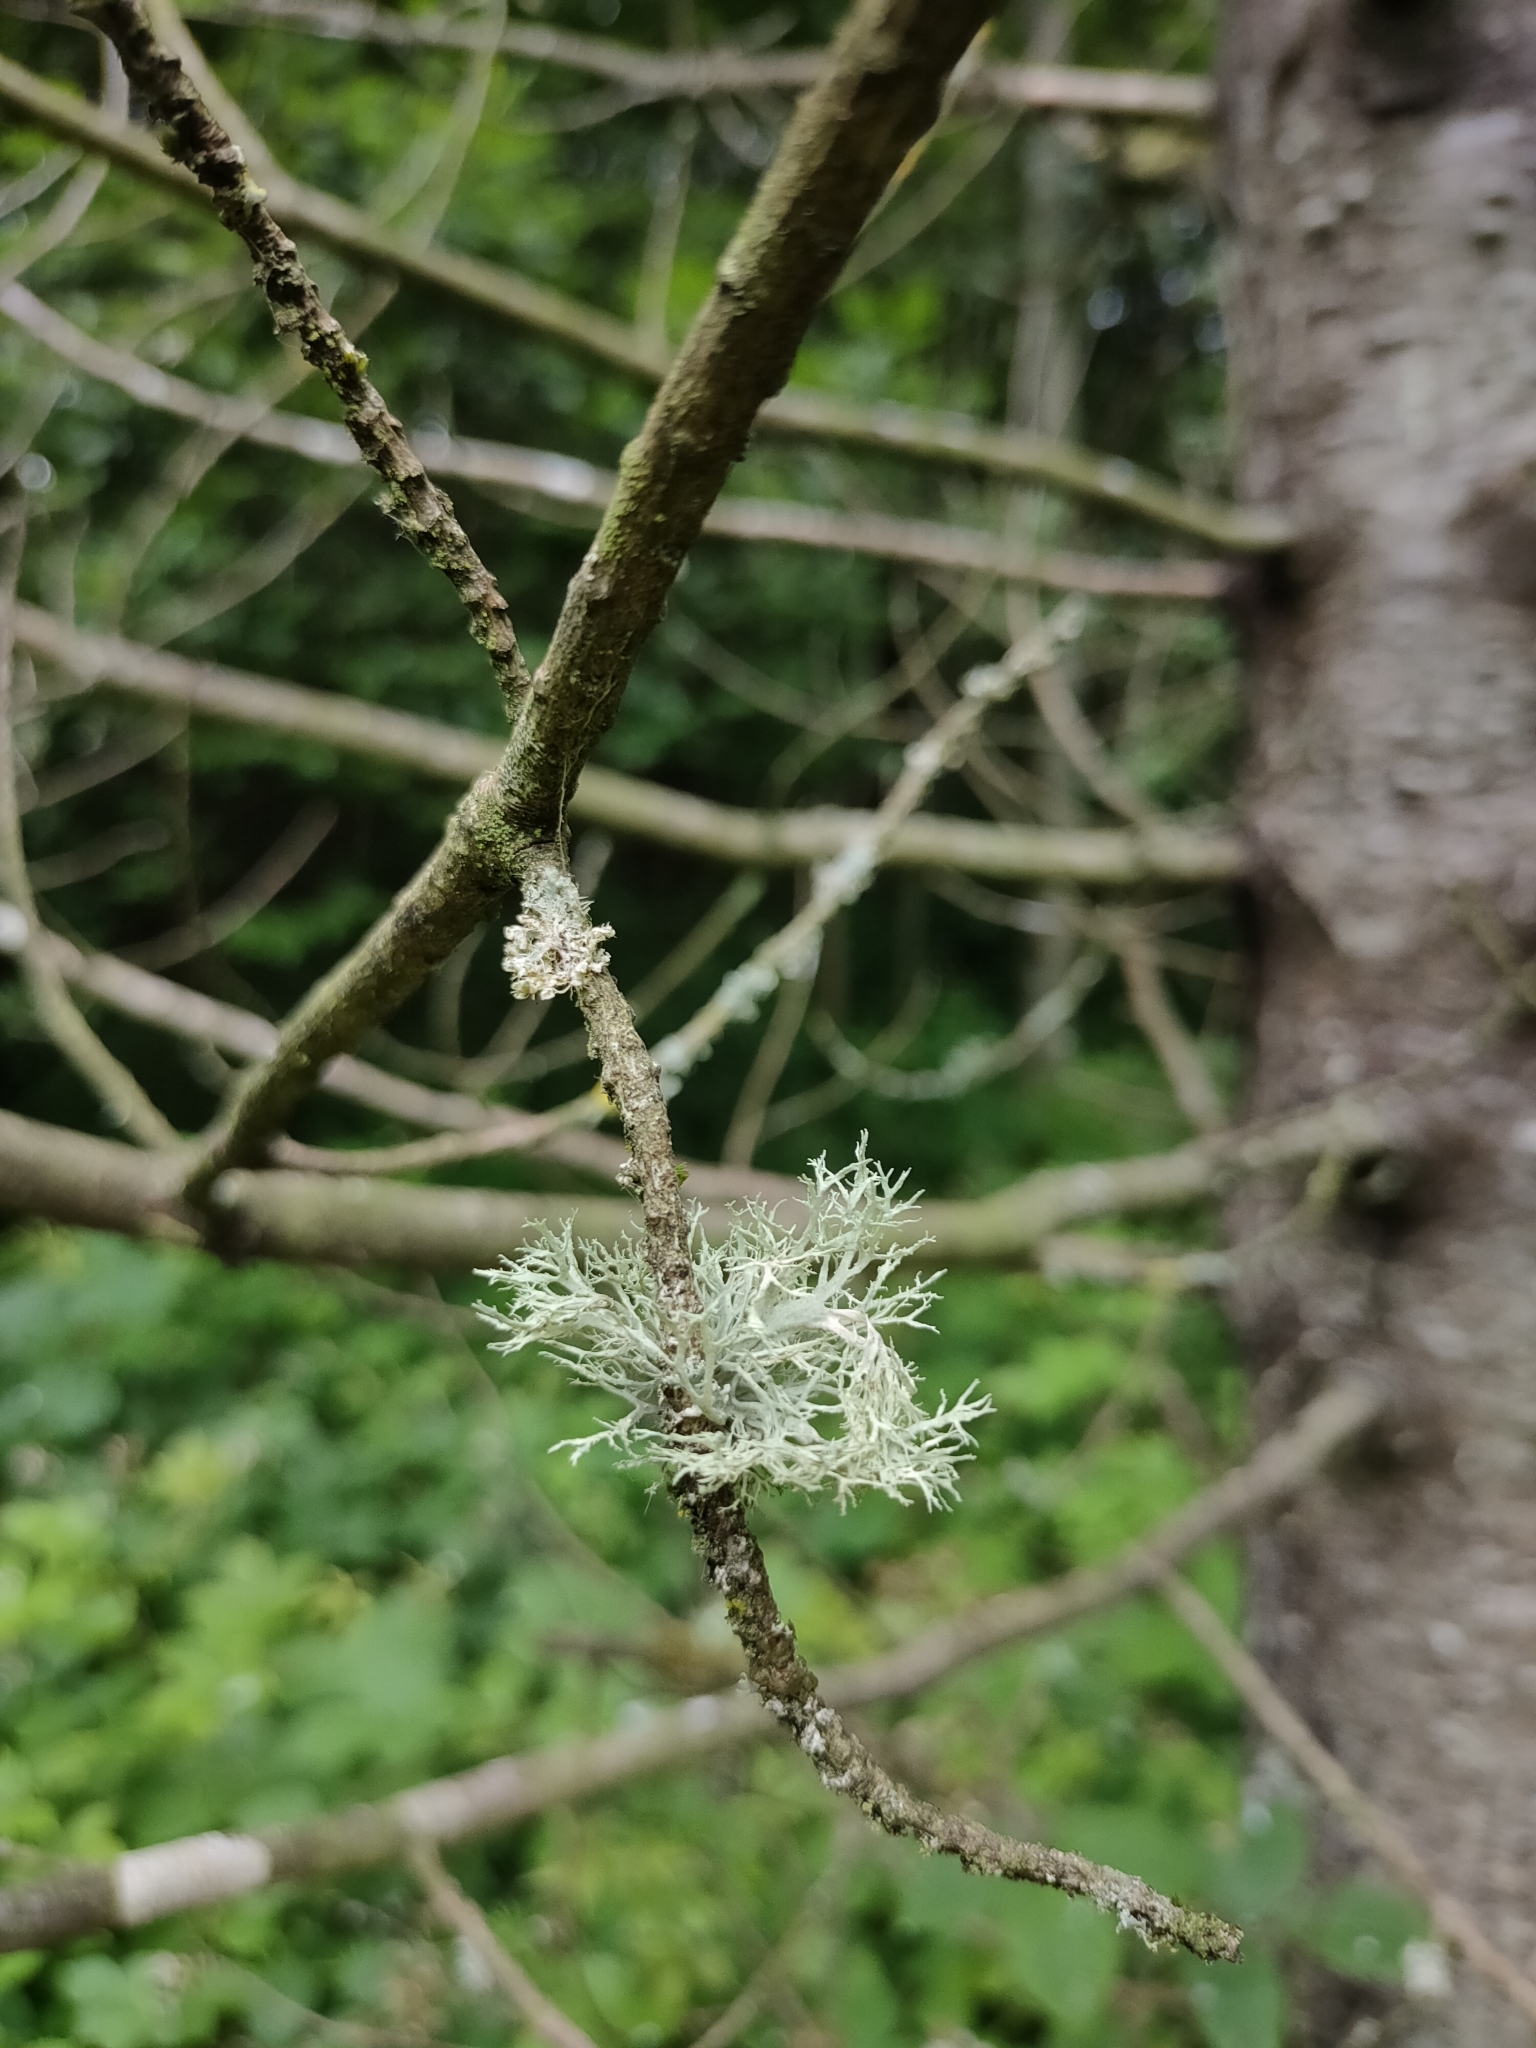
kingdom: Fungi
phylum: Ascomycota
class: Lecanoromycetes
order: Lecanorales
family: Parmeliaceae
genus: Evernia
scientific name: Evernia prunastri
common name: Oak moss
